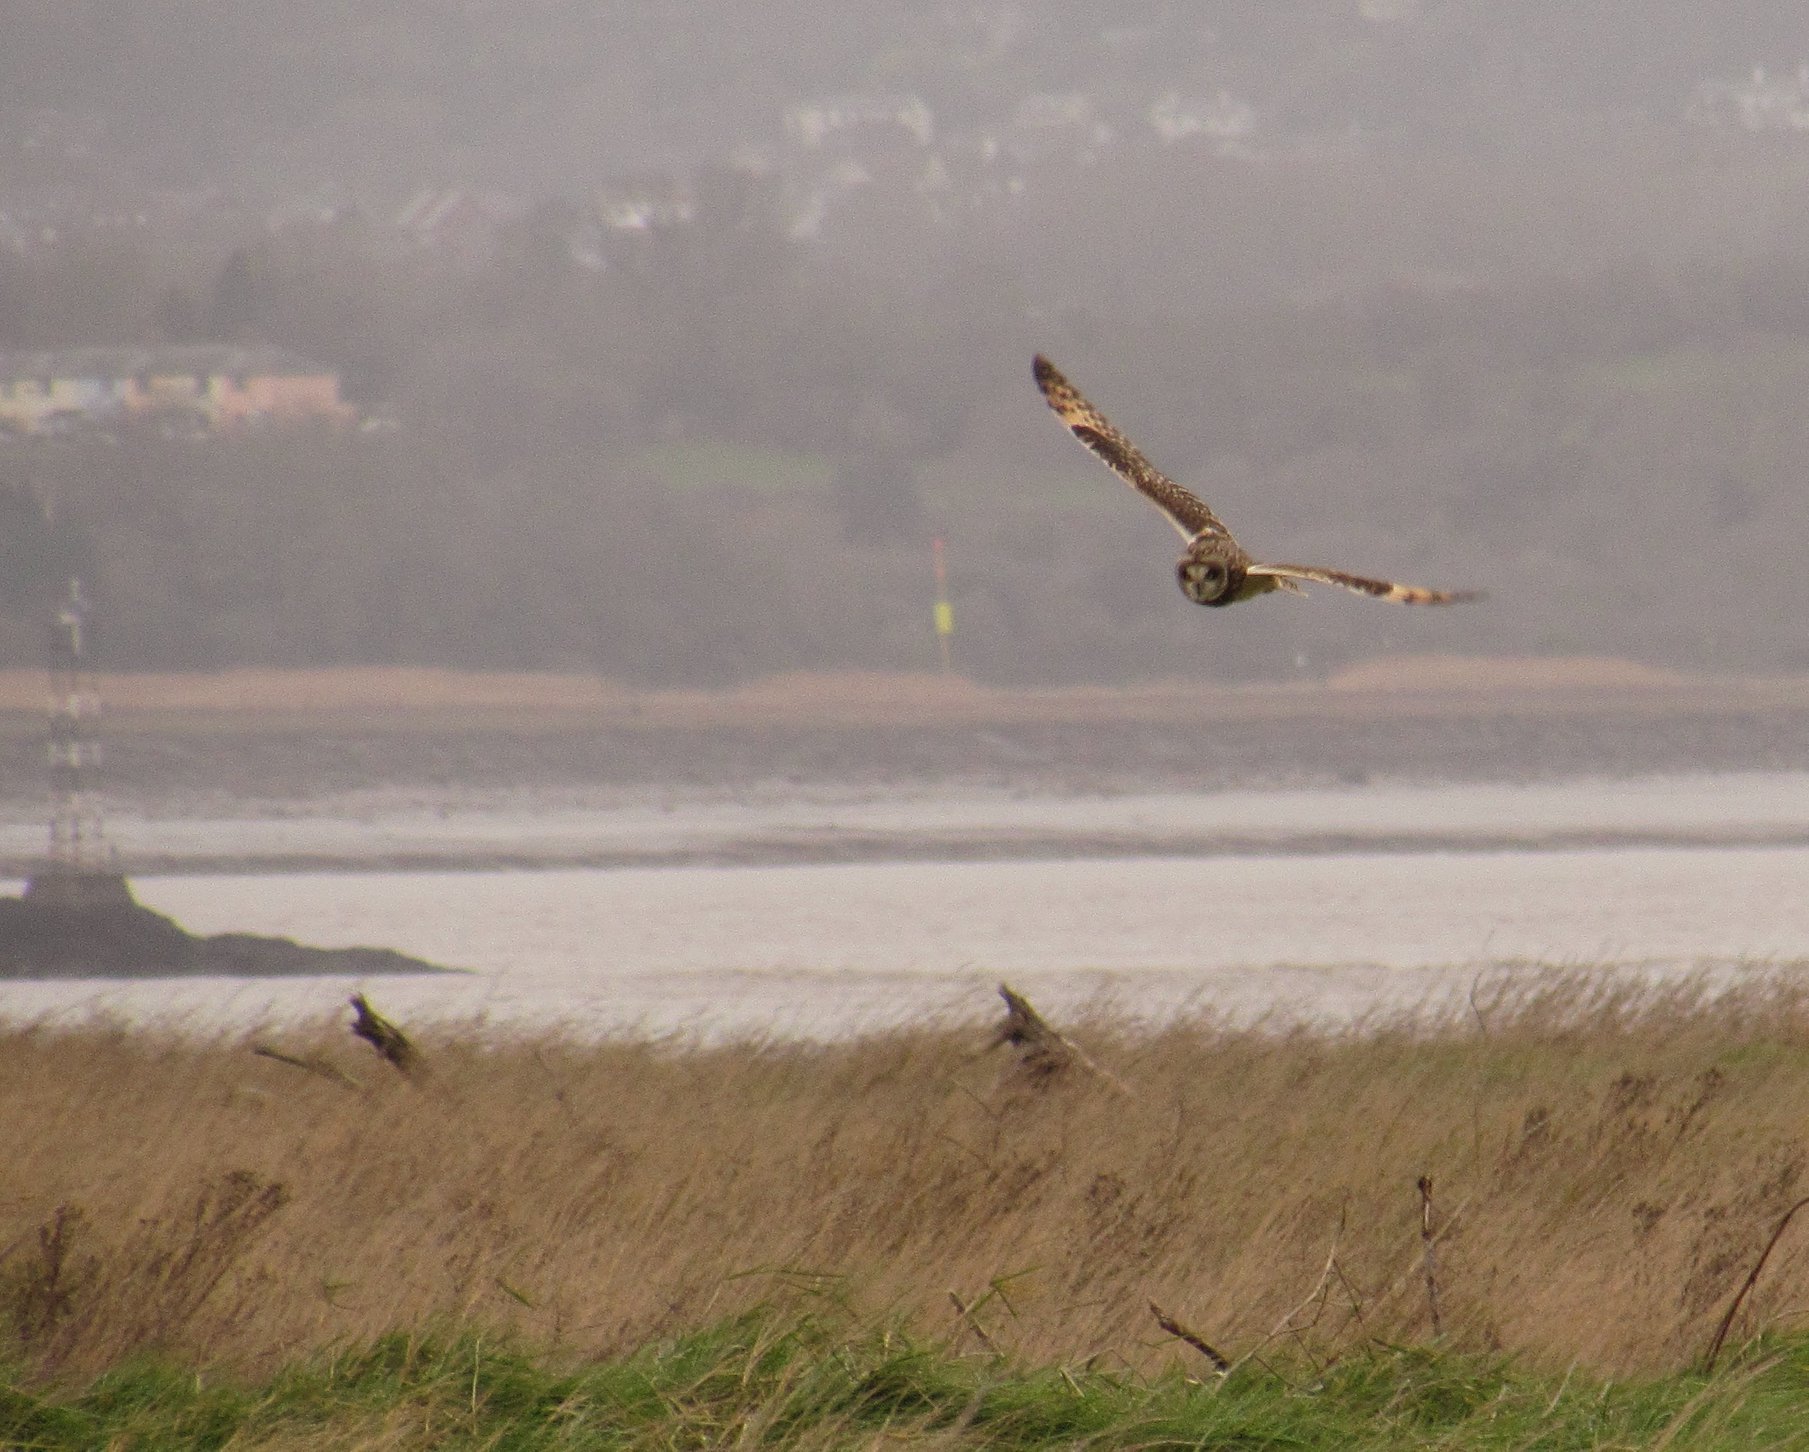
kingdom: Animalia
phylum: Chordata
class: Aves
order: Strigiformes
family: Strigidae
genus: Asio
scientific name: Asio flammeus
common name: Short-eared owl
